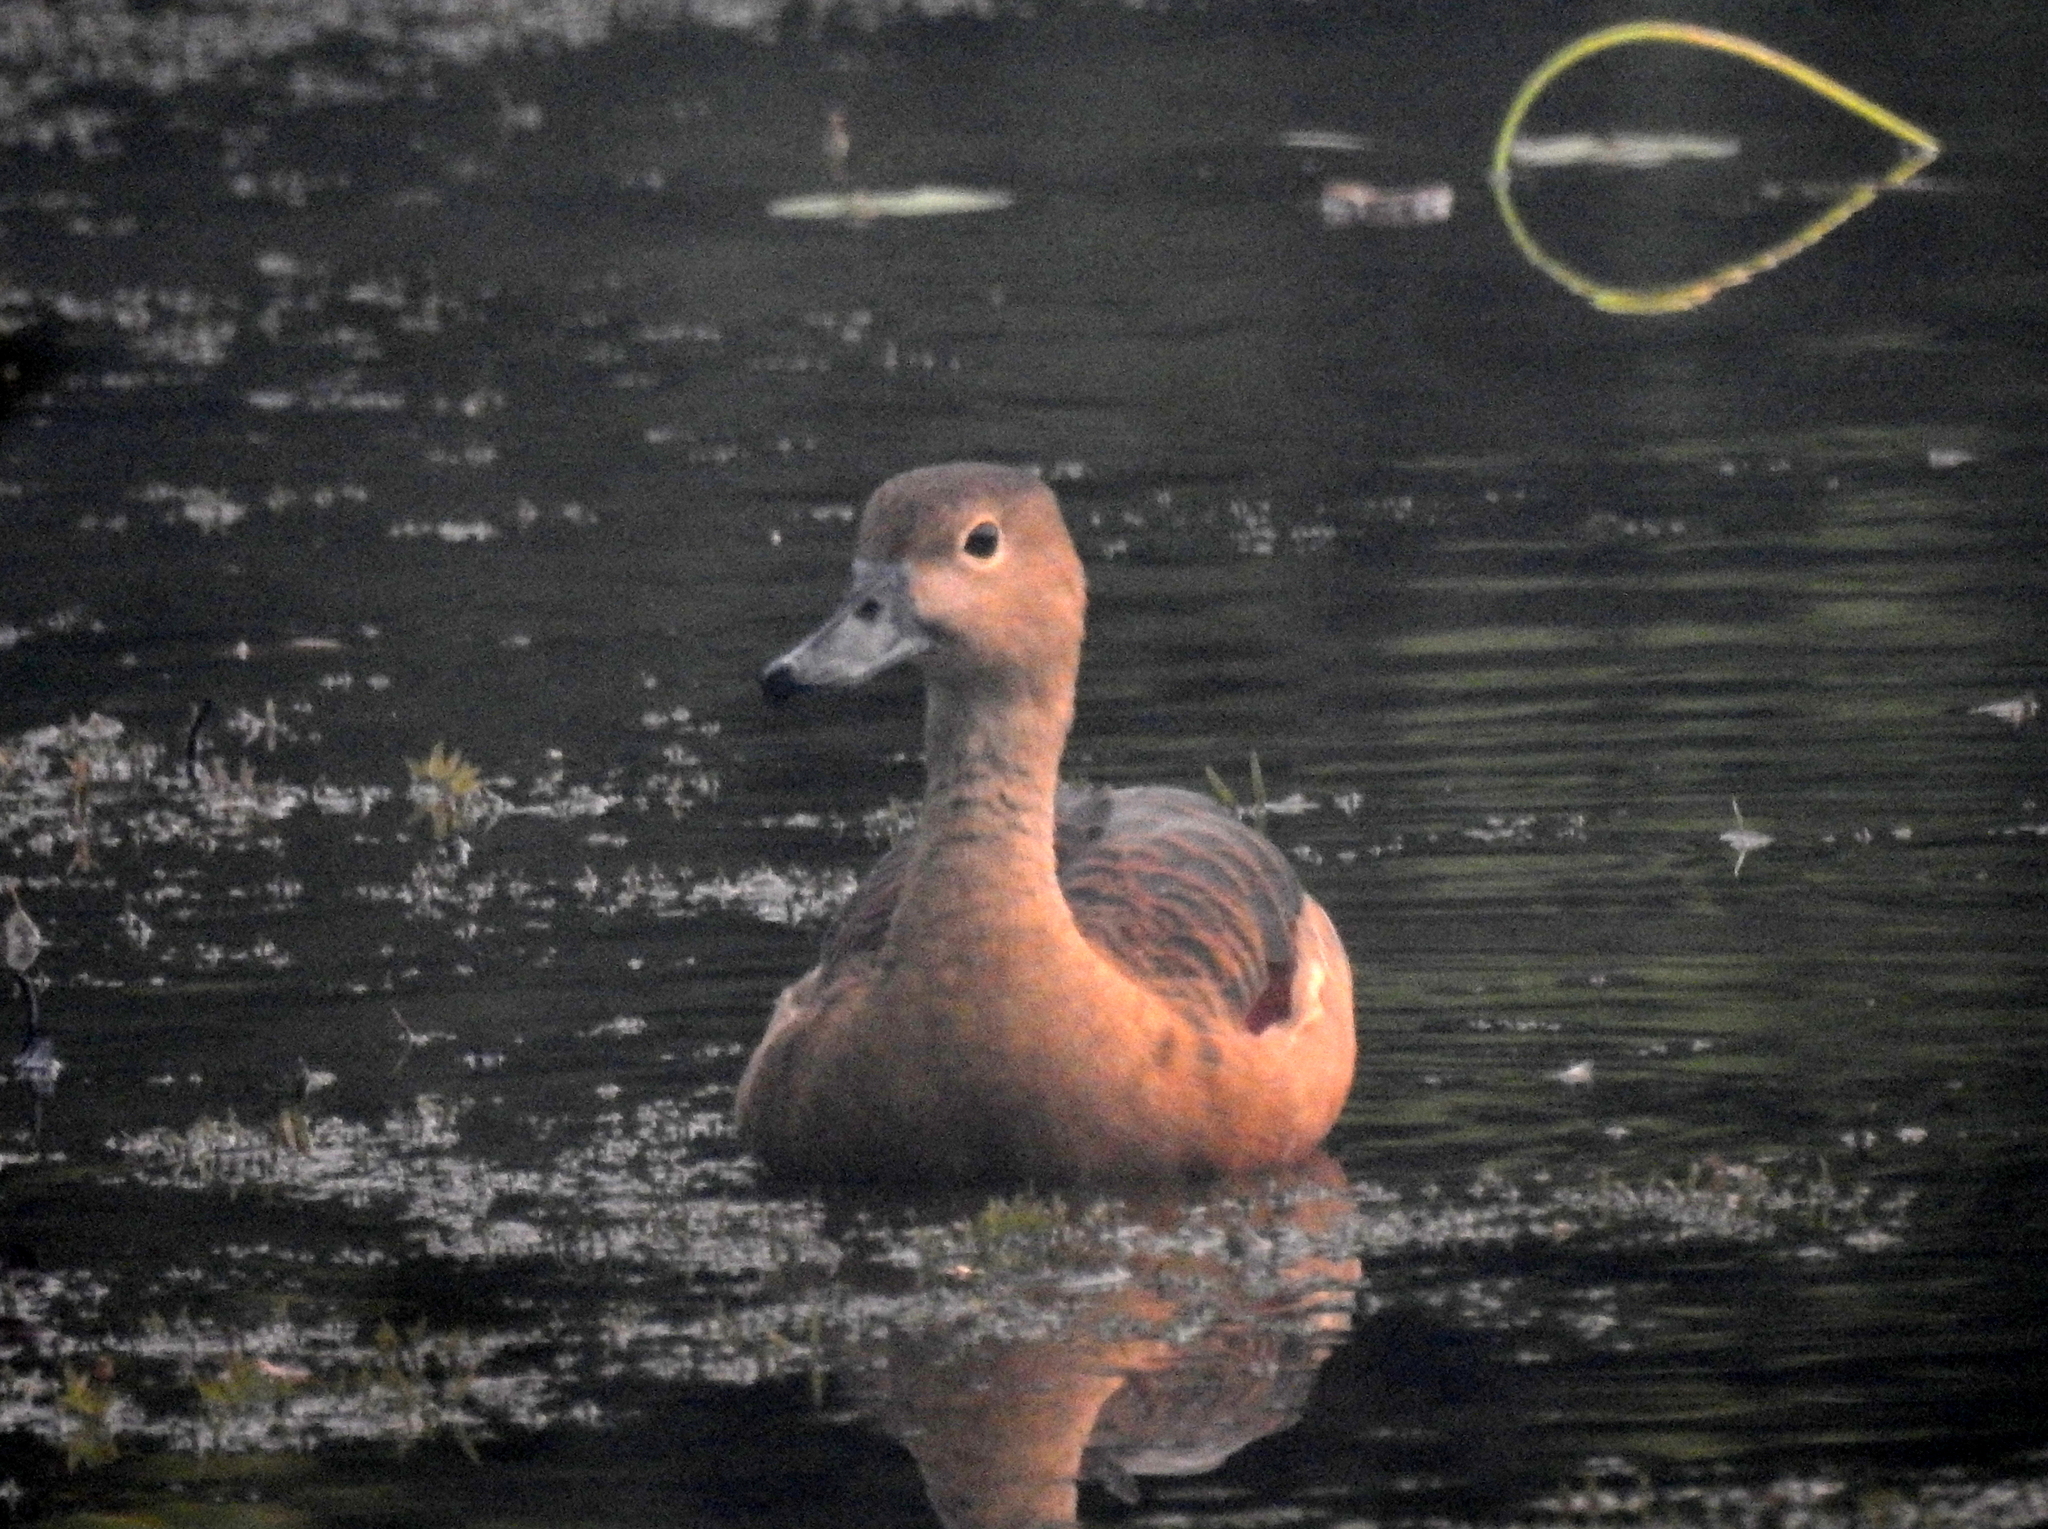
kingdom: Animalia
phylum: Chordata
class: Aves
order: Anseriformes
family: Anatidae
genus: Dendrocygna
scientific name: Dendrocygna javanica
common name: Lesser whistling-duck
